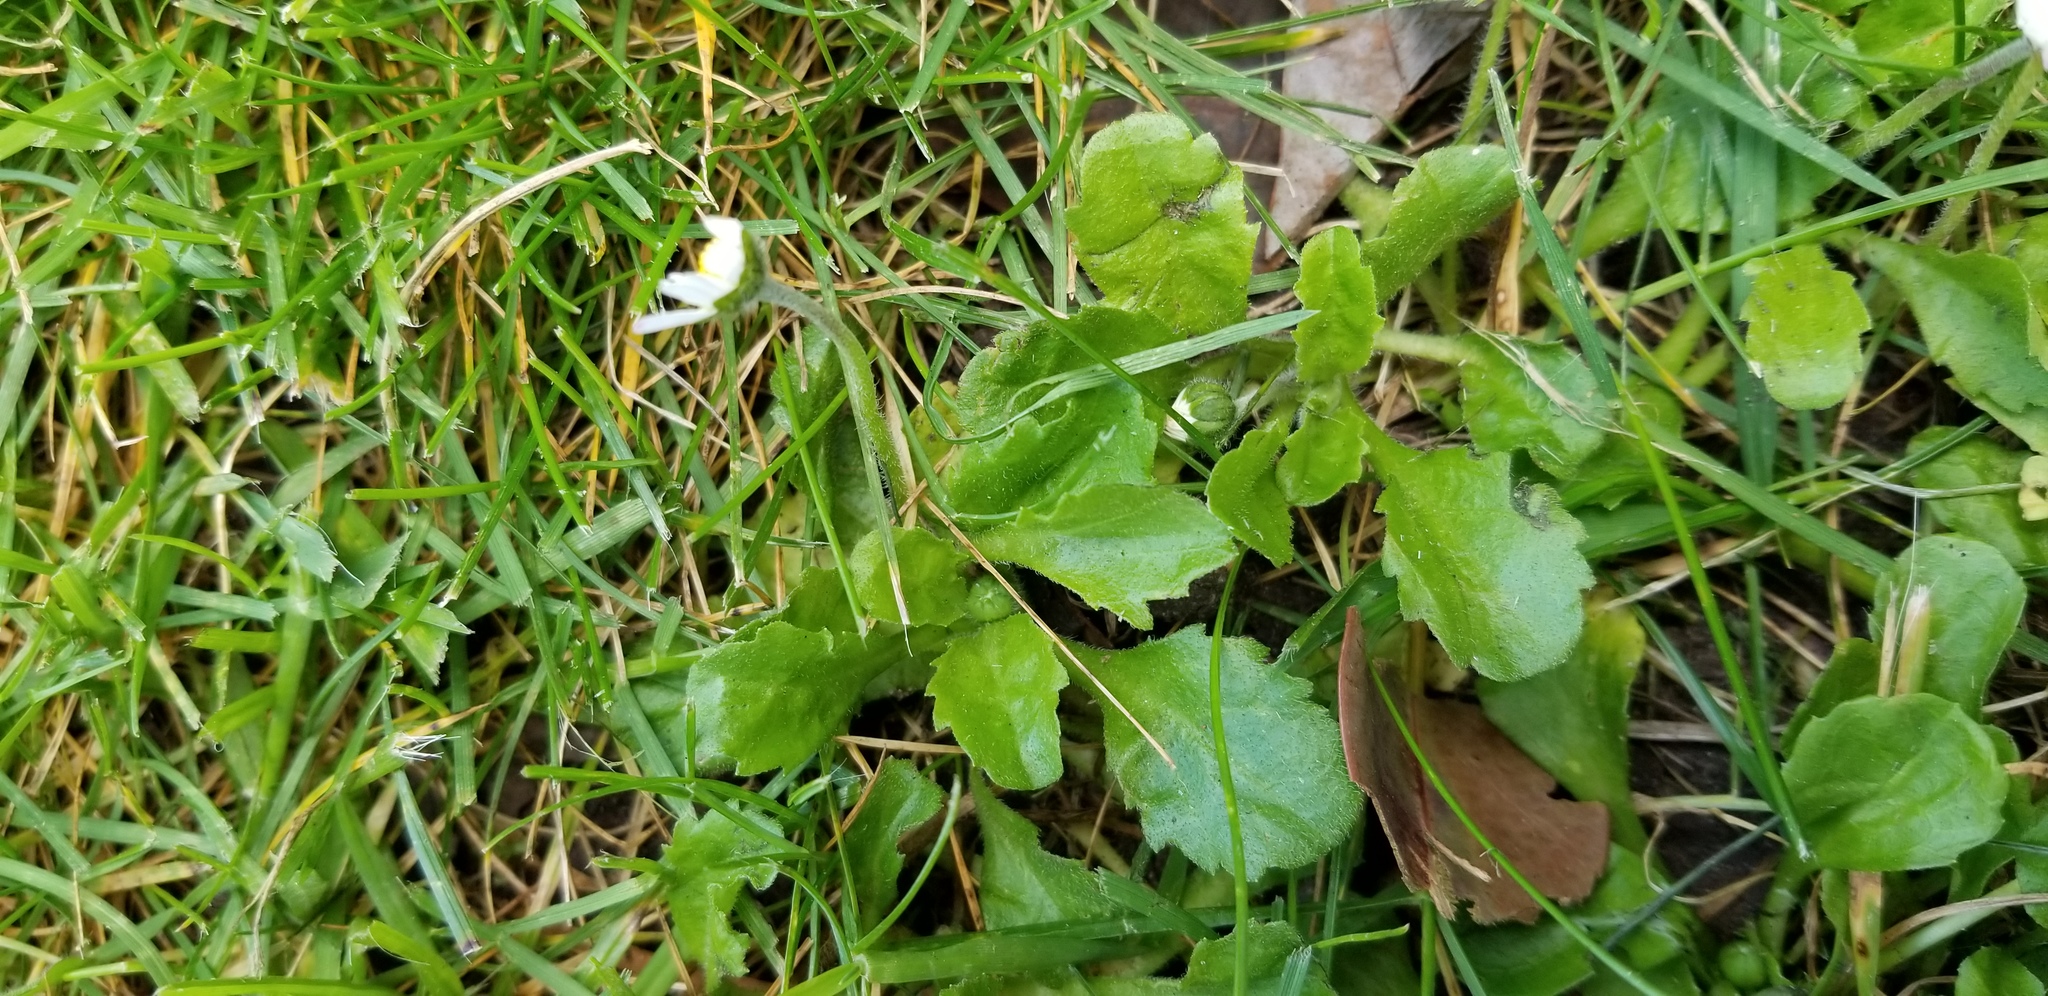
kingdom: Plantae
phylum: Tracheophyta
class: Magnoliopsida
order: Asterales
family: Asteraceae
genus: Bellis
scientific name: Bellis perennis
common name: Lawndaisy
